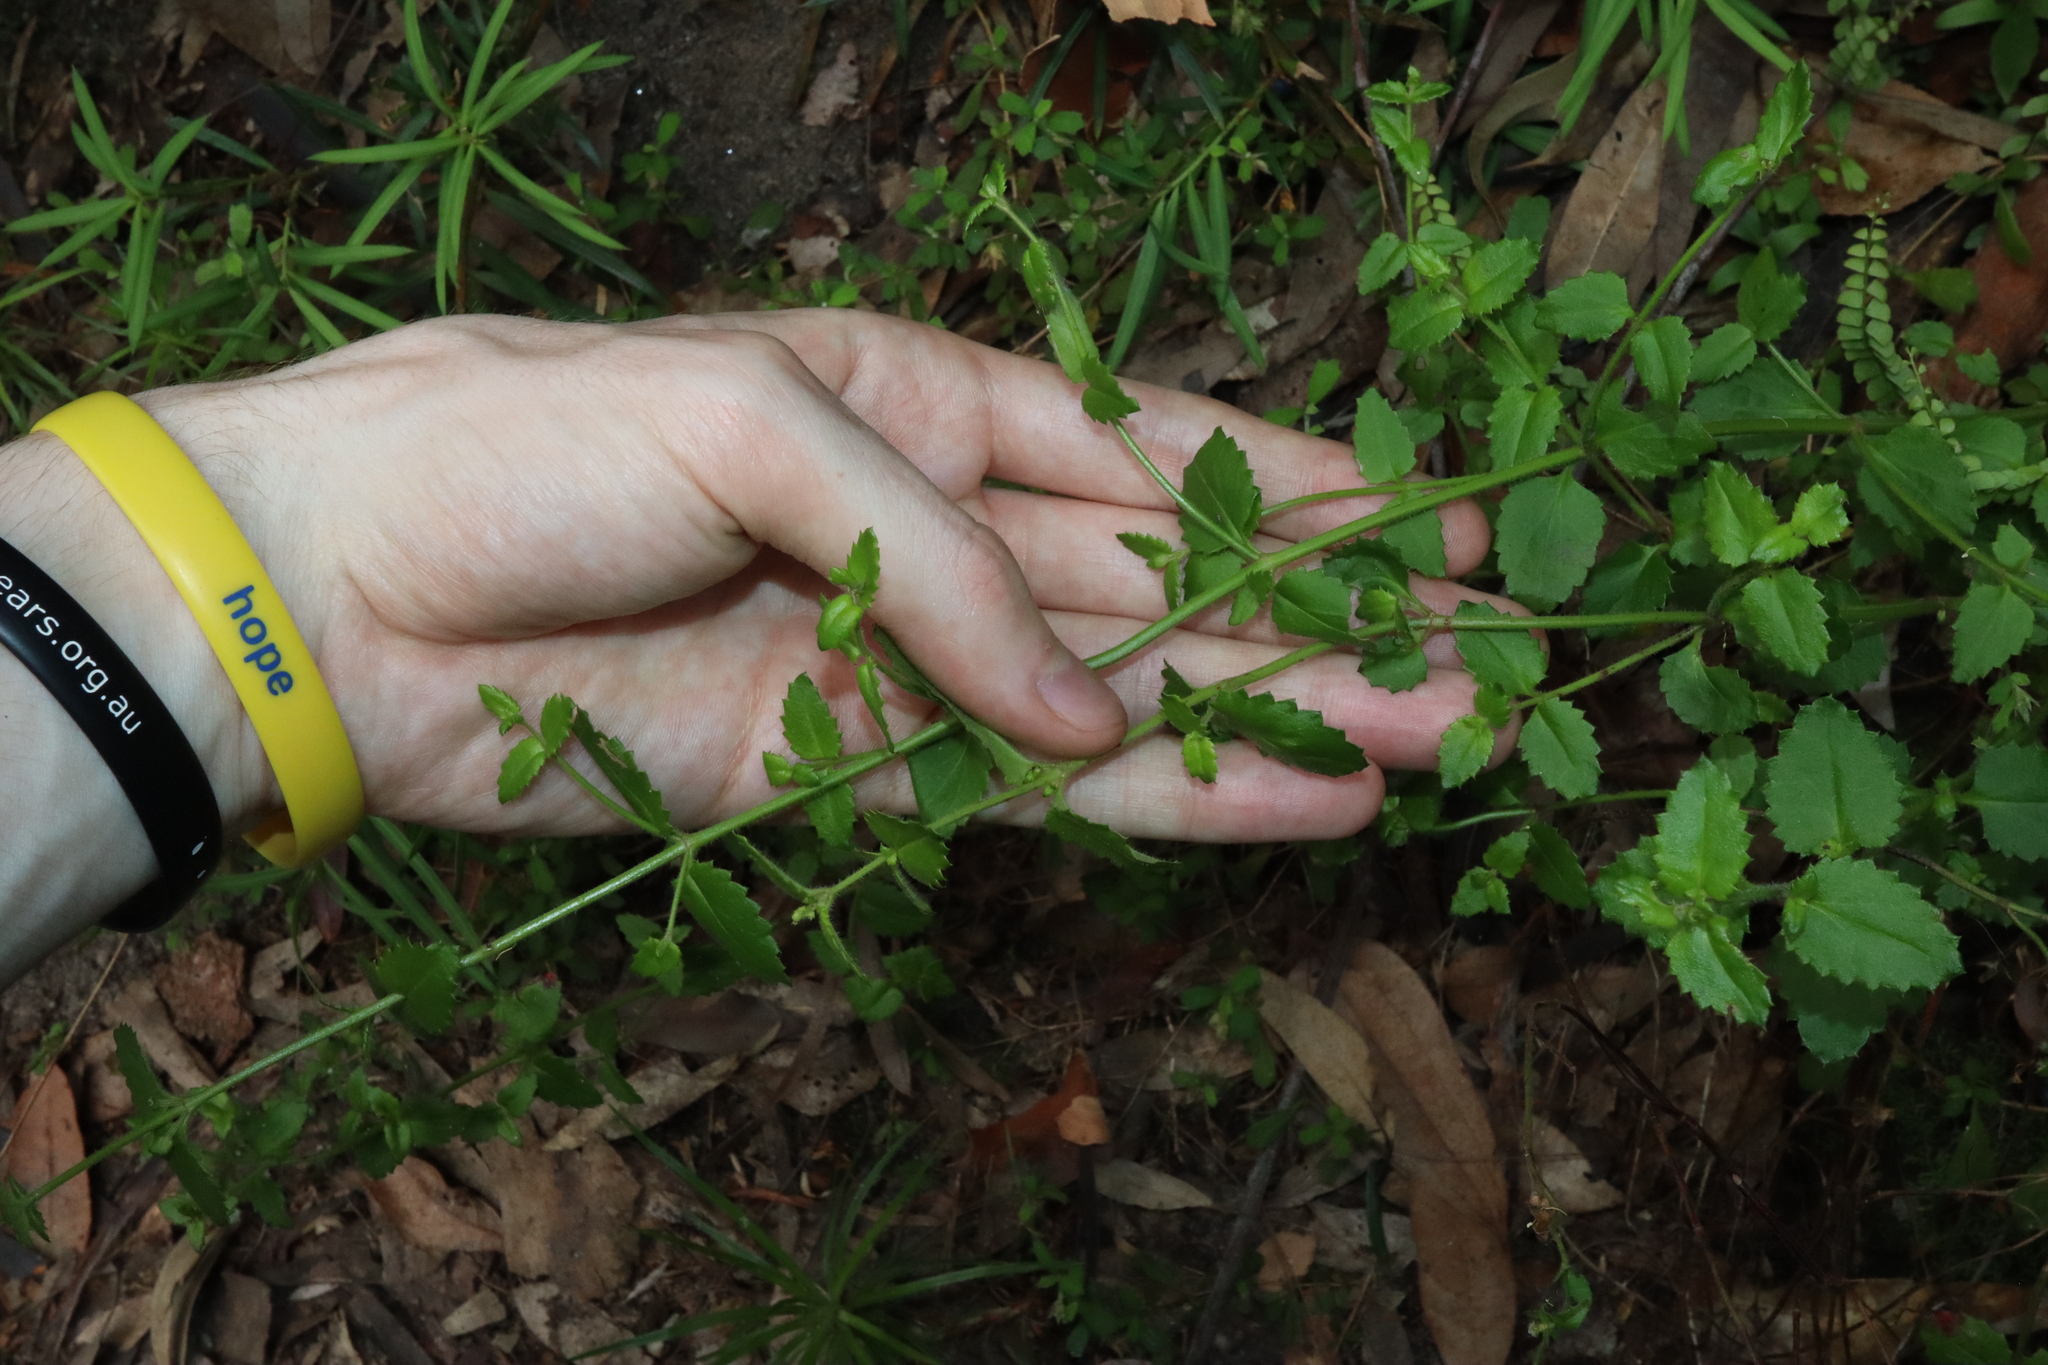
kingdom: Plantae
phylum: Tracheophyta
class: Magnoliopsida
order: Saxifragales
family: Haloragaceae
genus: Gonocarpus
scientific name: Gonocarpus teucrioides
